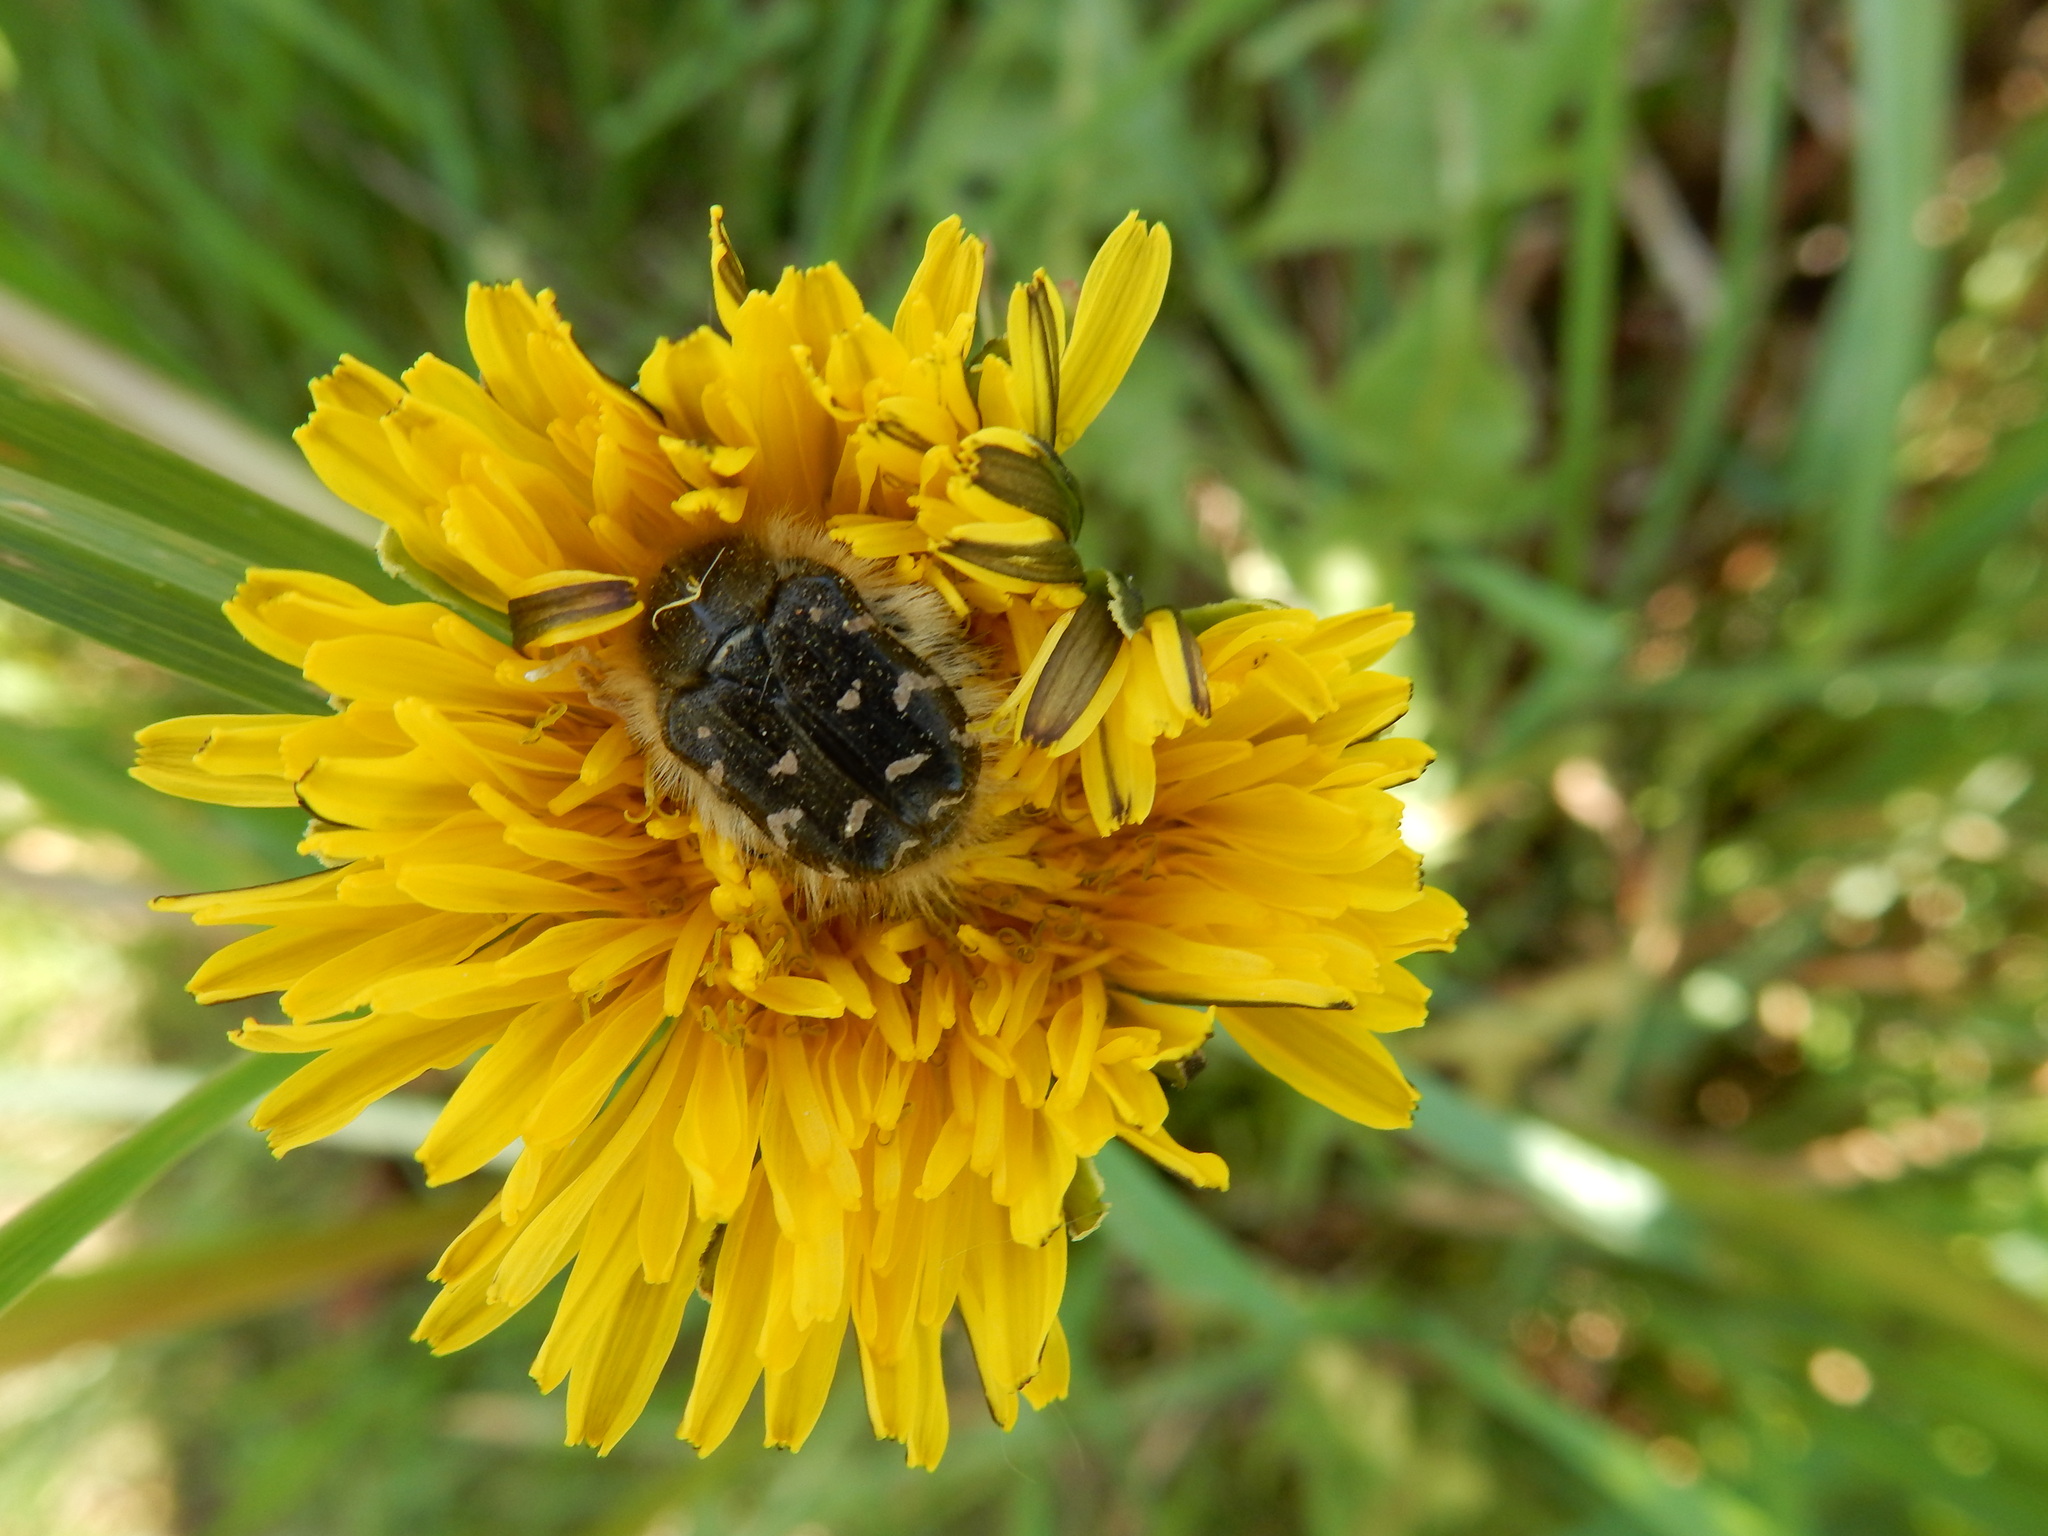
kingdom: Animalia
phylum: Arthropoda
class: Insecta
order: Coleoptera
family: Scarabaeidae
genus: Tropinota
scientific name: Tropinota hirta
